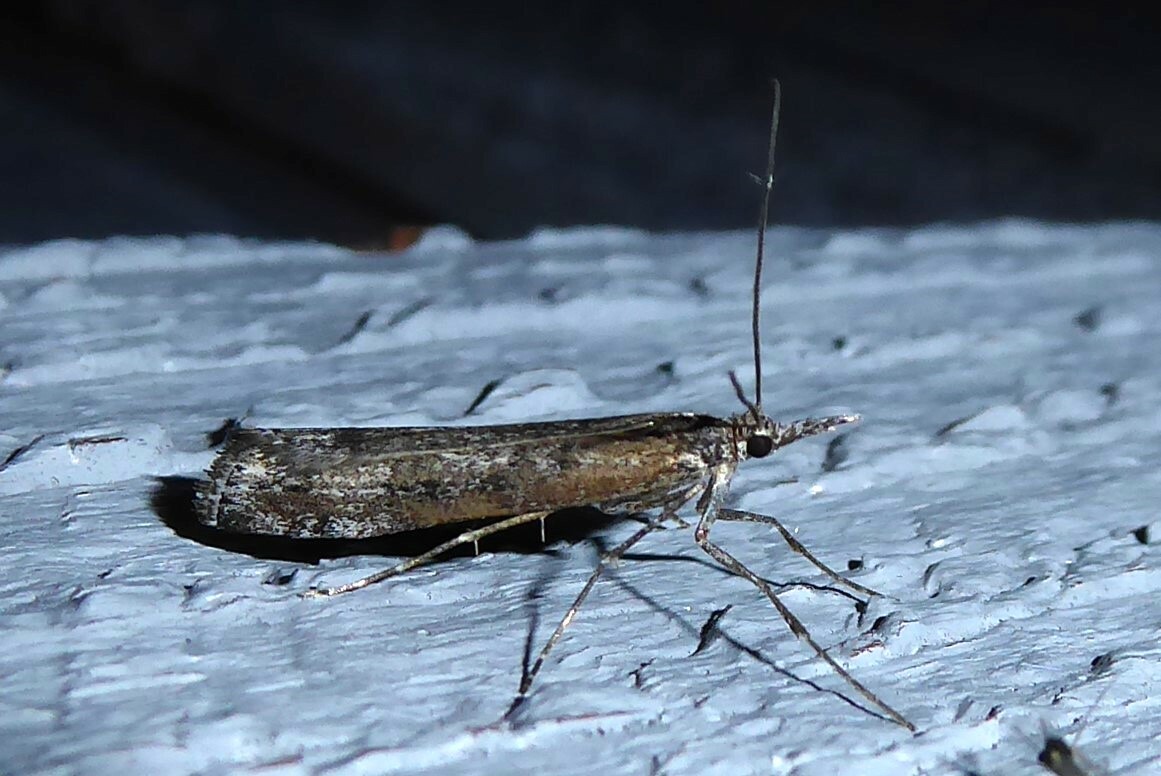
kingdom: Animalia
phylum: Arthropoda
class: Insecta
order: Lepidoptera
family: Crambidae
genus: Orocrambus
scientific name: Orocrambus cyclopicus
